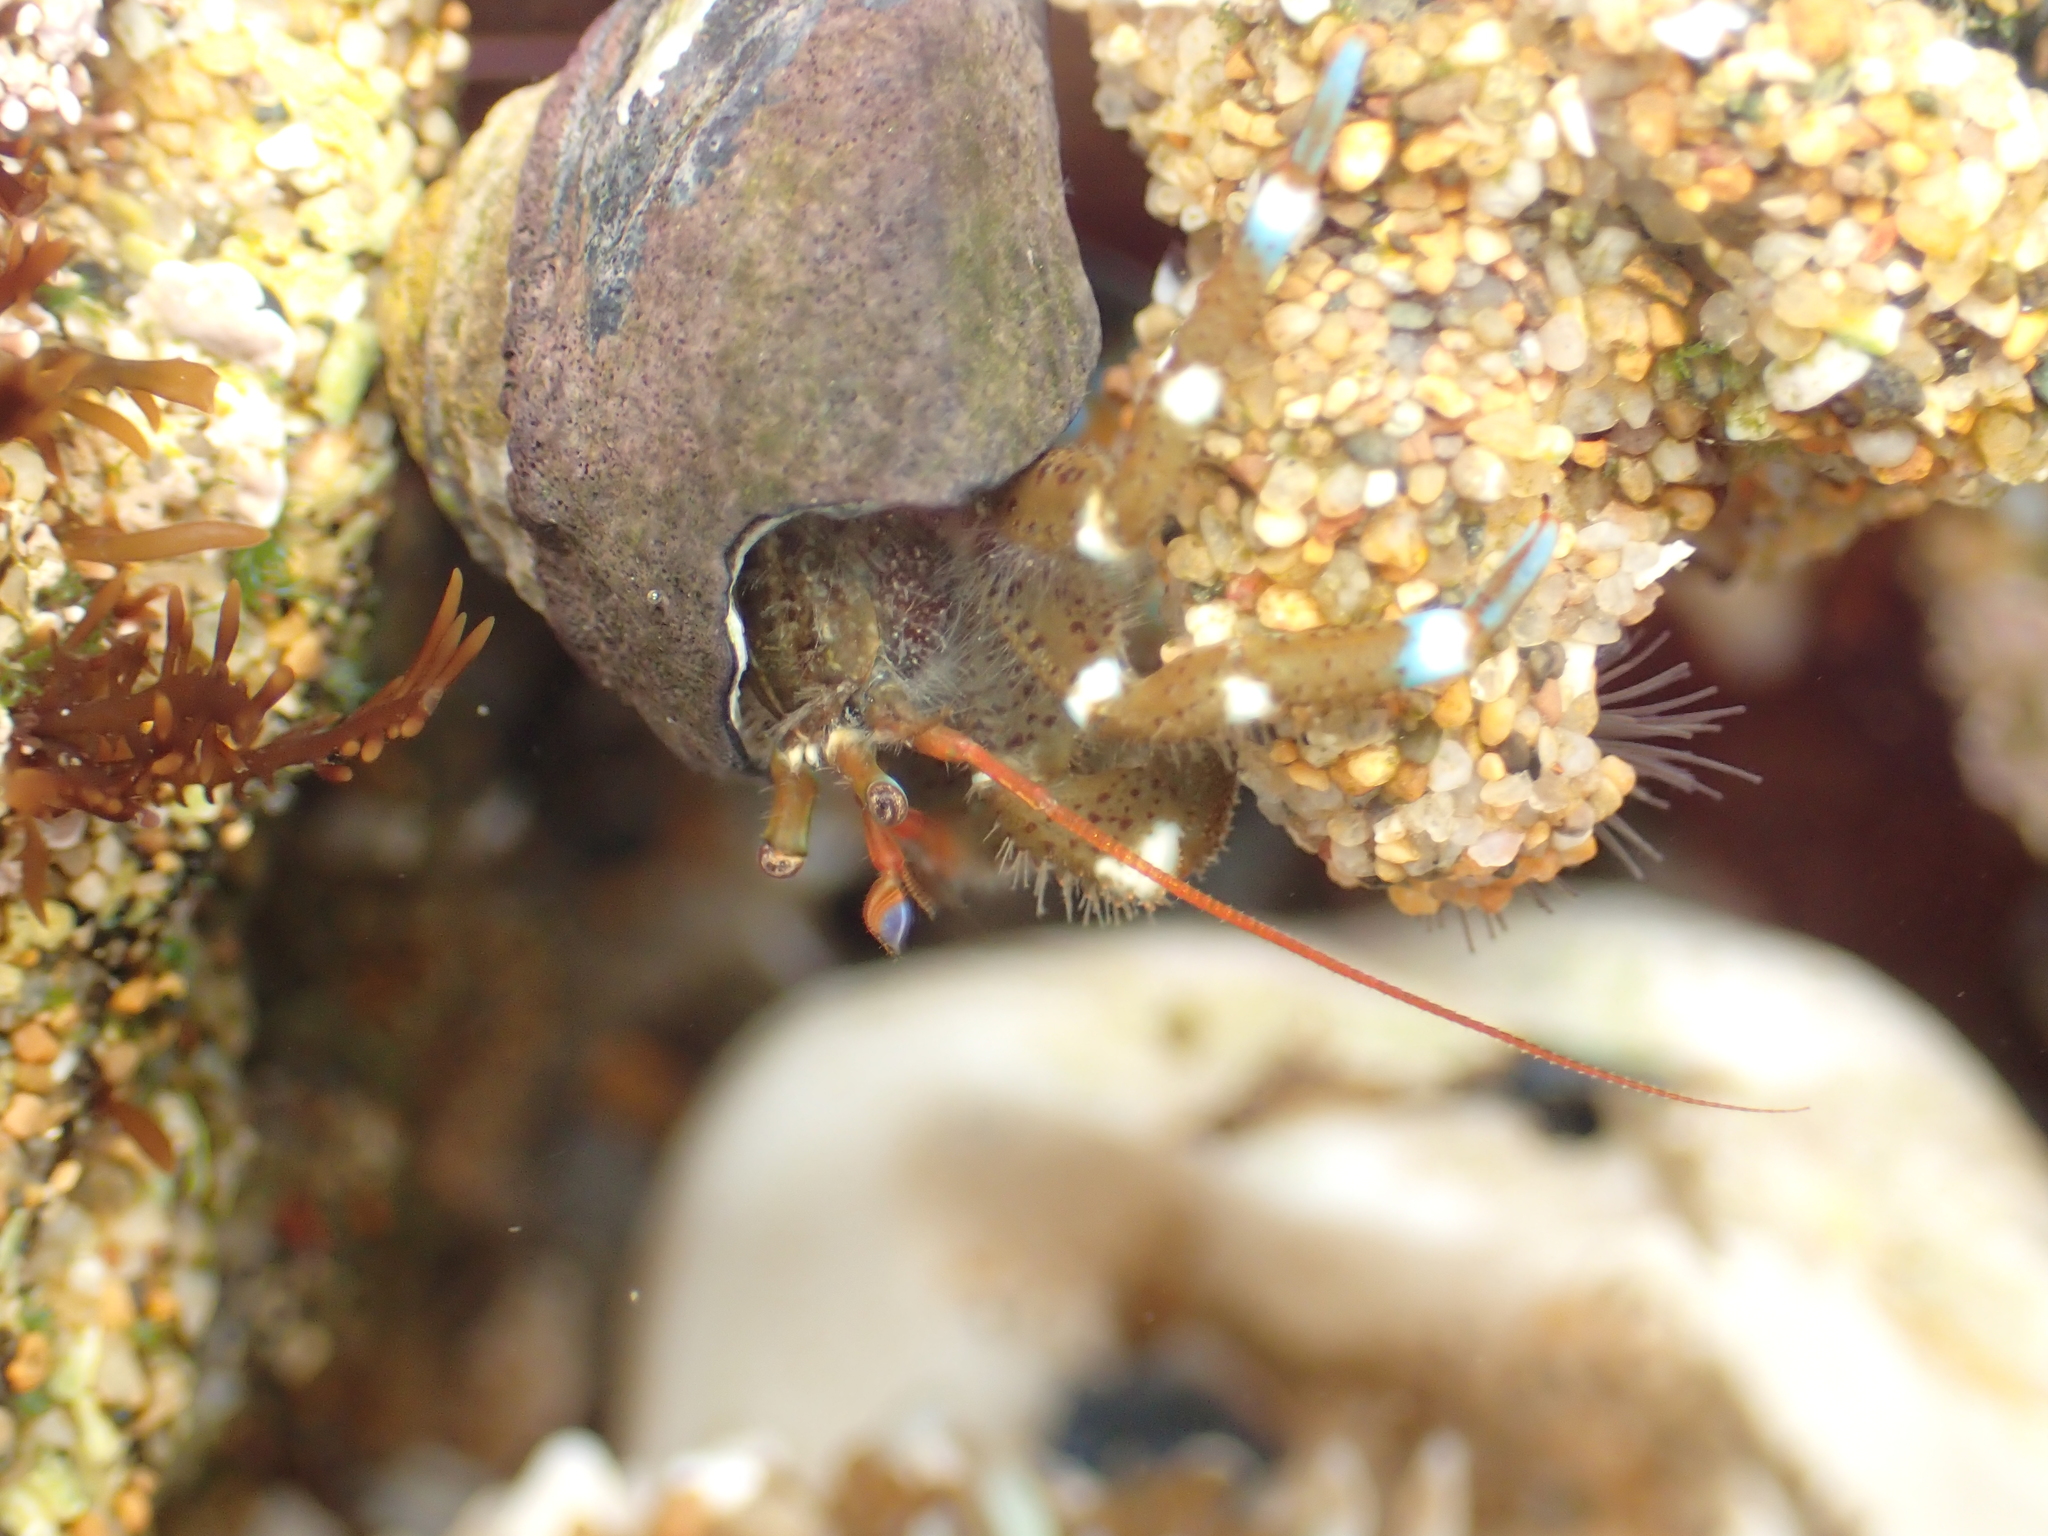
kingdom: Animalia
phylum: Arthropoda
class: Malacostraca
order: Decapoda
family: Paguridae
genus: Pagurus
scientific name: Pagurus samuelis
